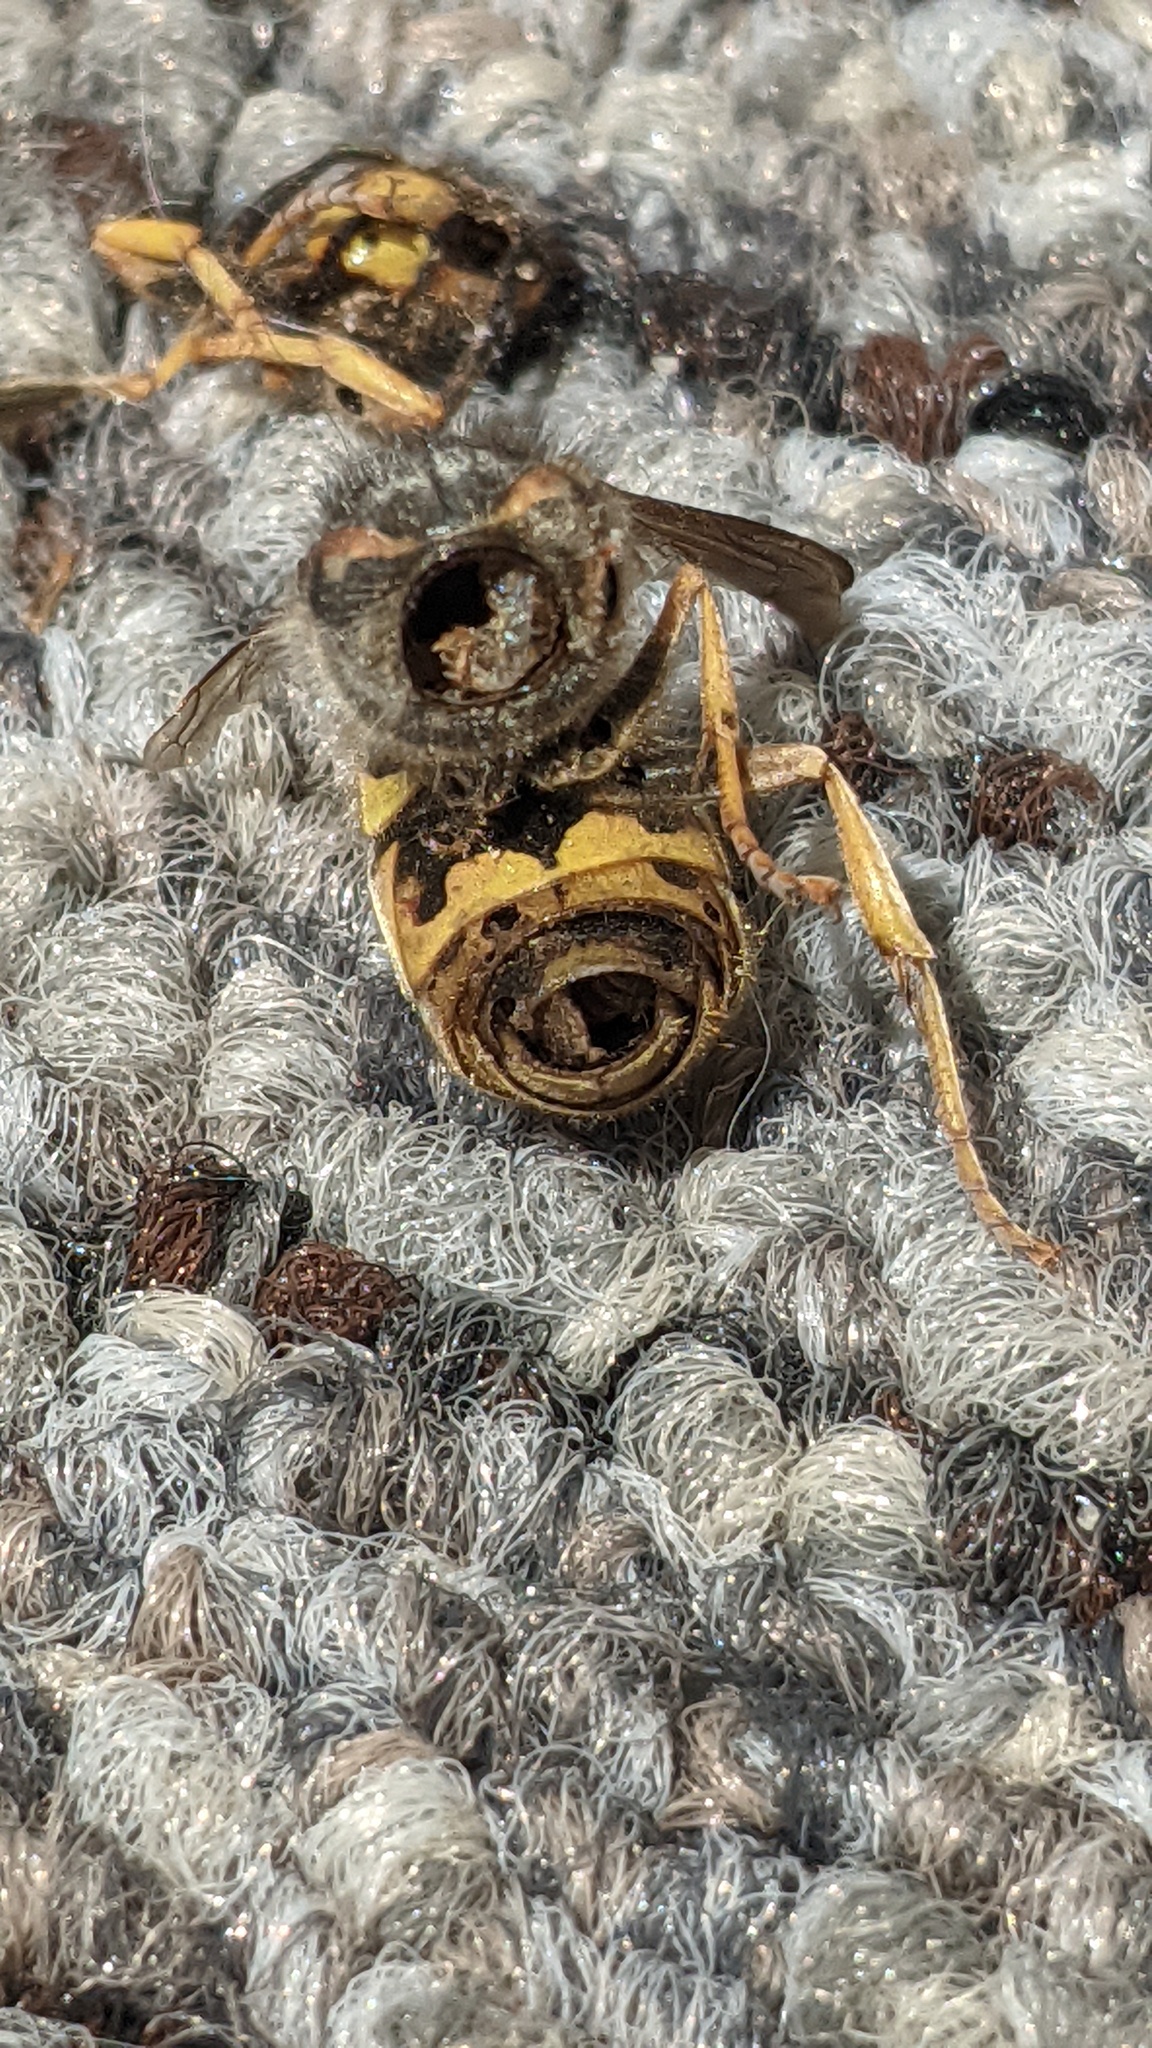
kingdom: Animalia
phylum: Arthropoda
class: Insecta
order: Hymenoptera
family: Vespidae
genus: Vespula
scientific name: Vespula germanica
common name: German wasp
